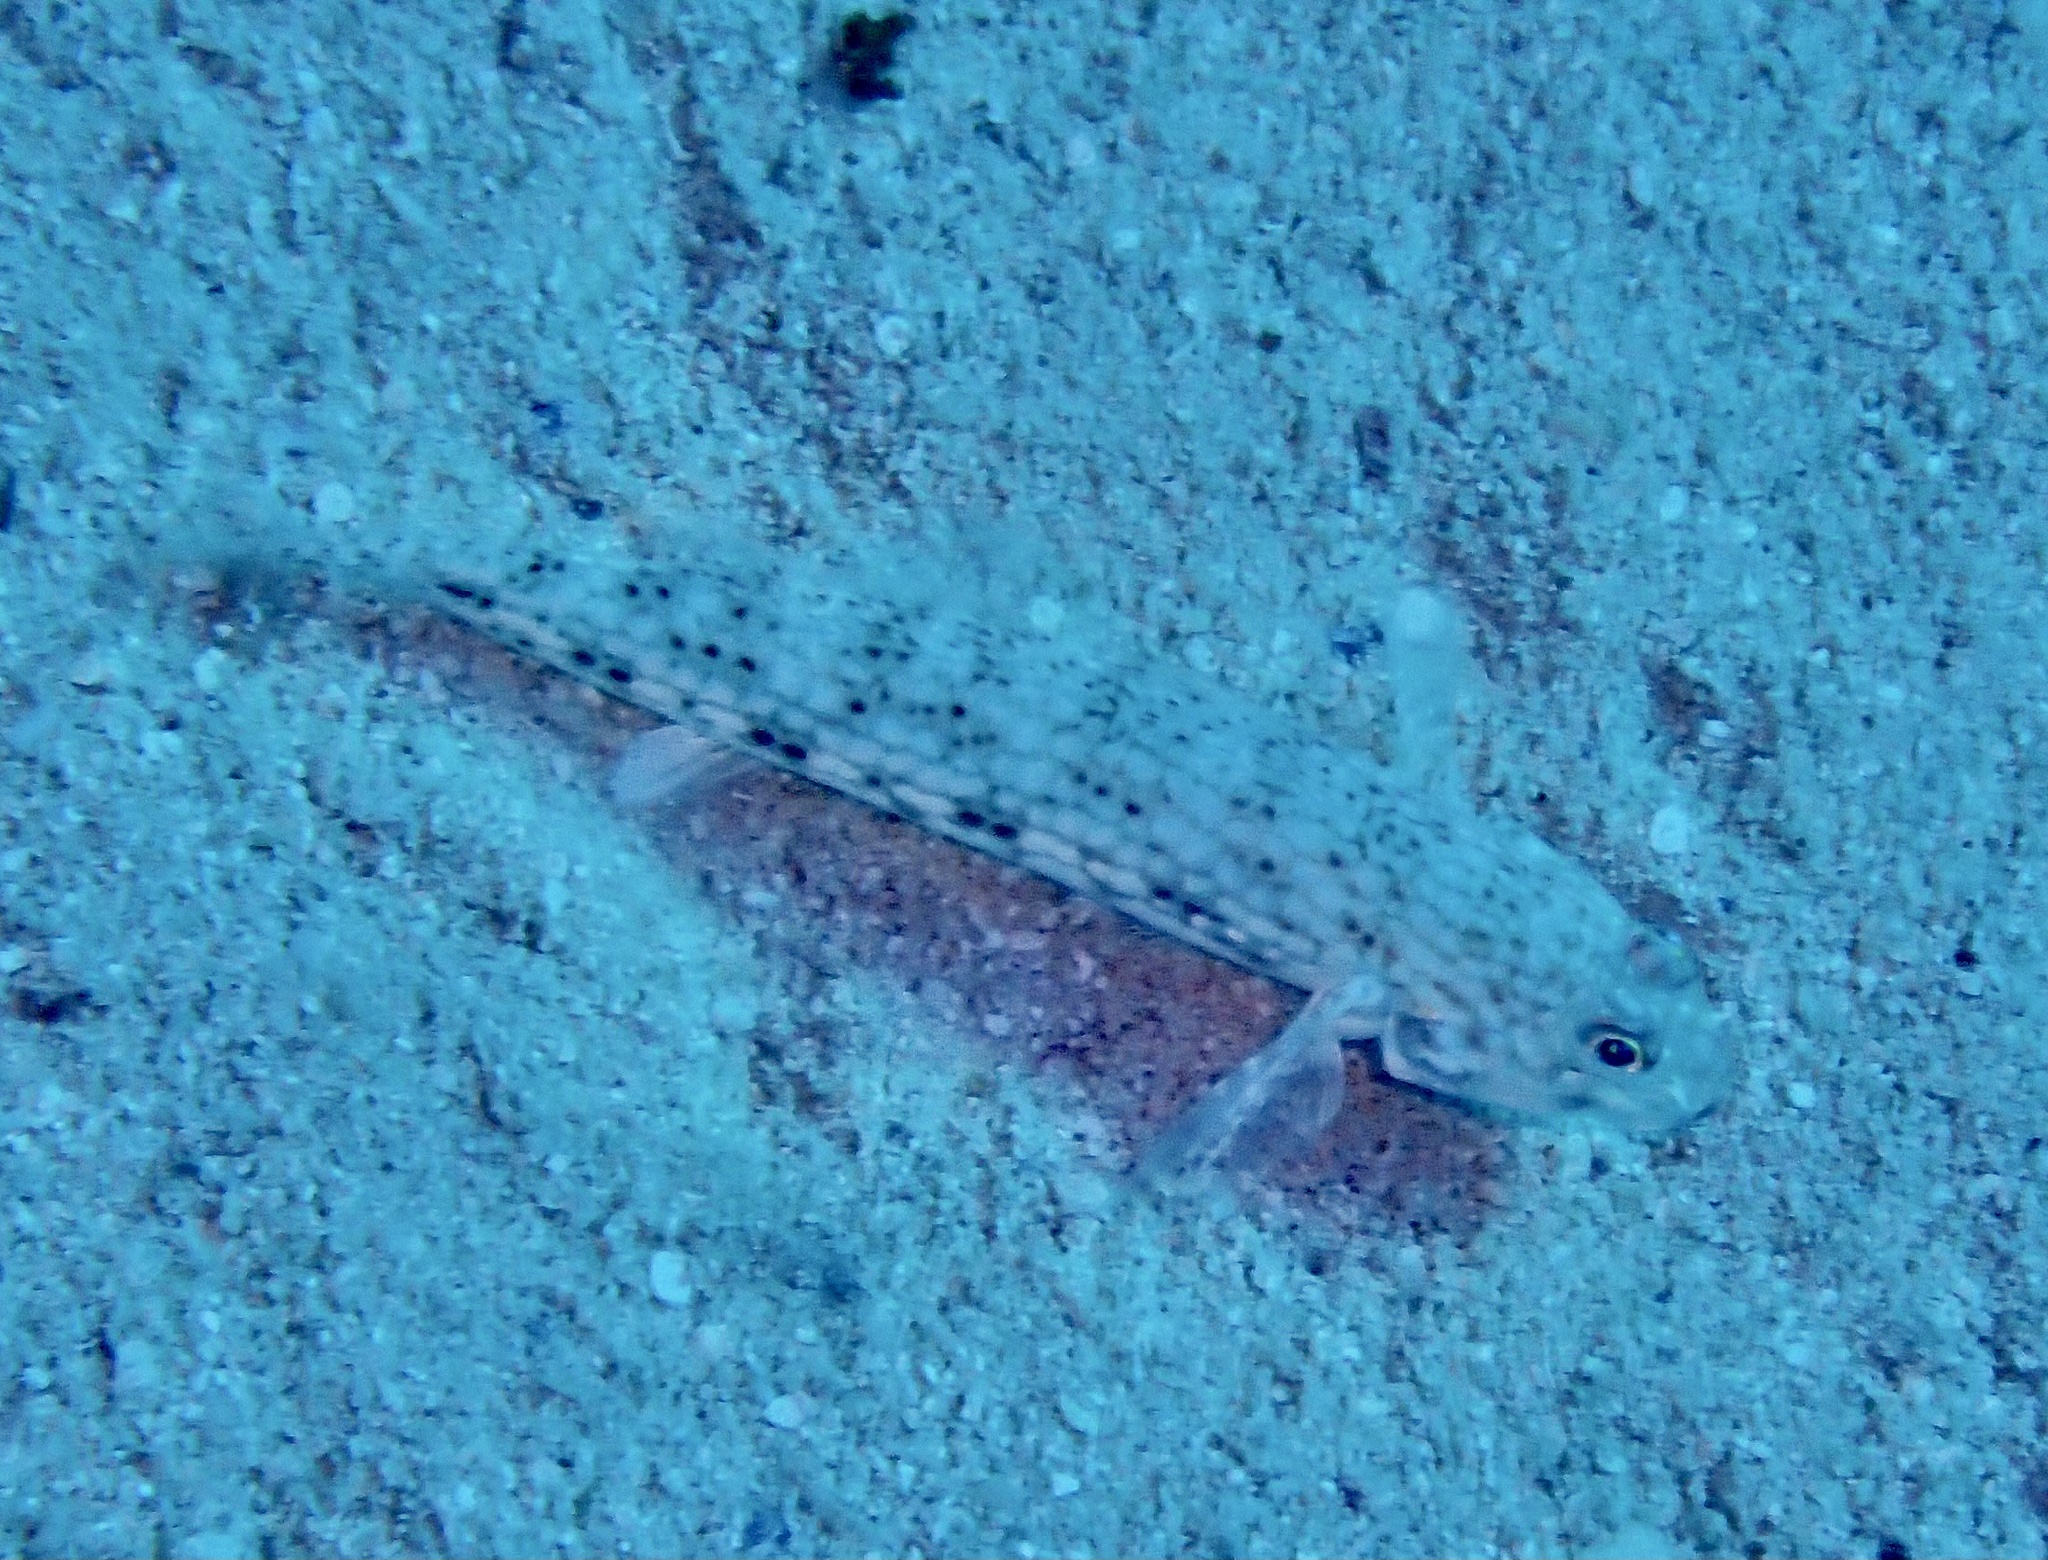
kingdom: Animalia
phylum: Chordata
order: Perciformes
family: Gobiidae
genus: Istigobius
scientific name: Istigobius decoratus
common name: Decorated goby
